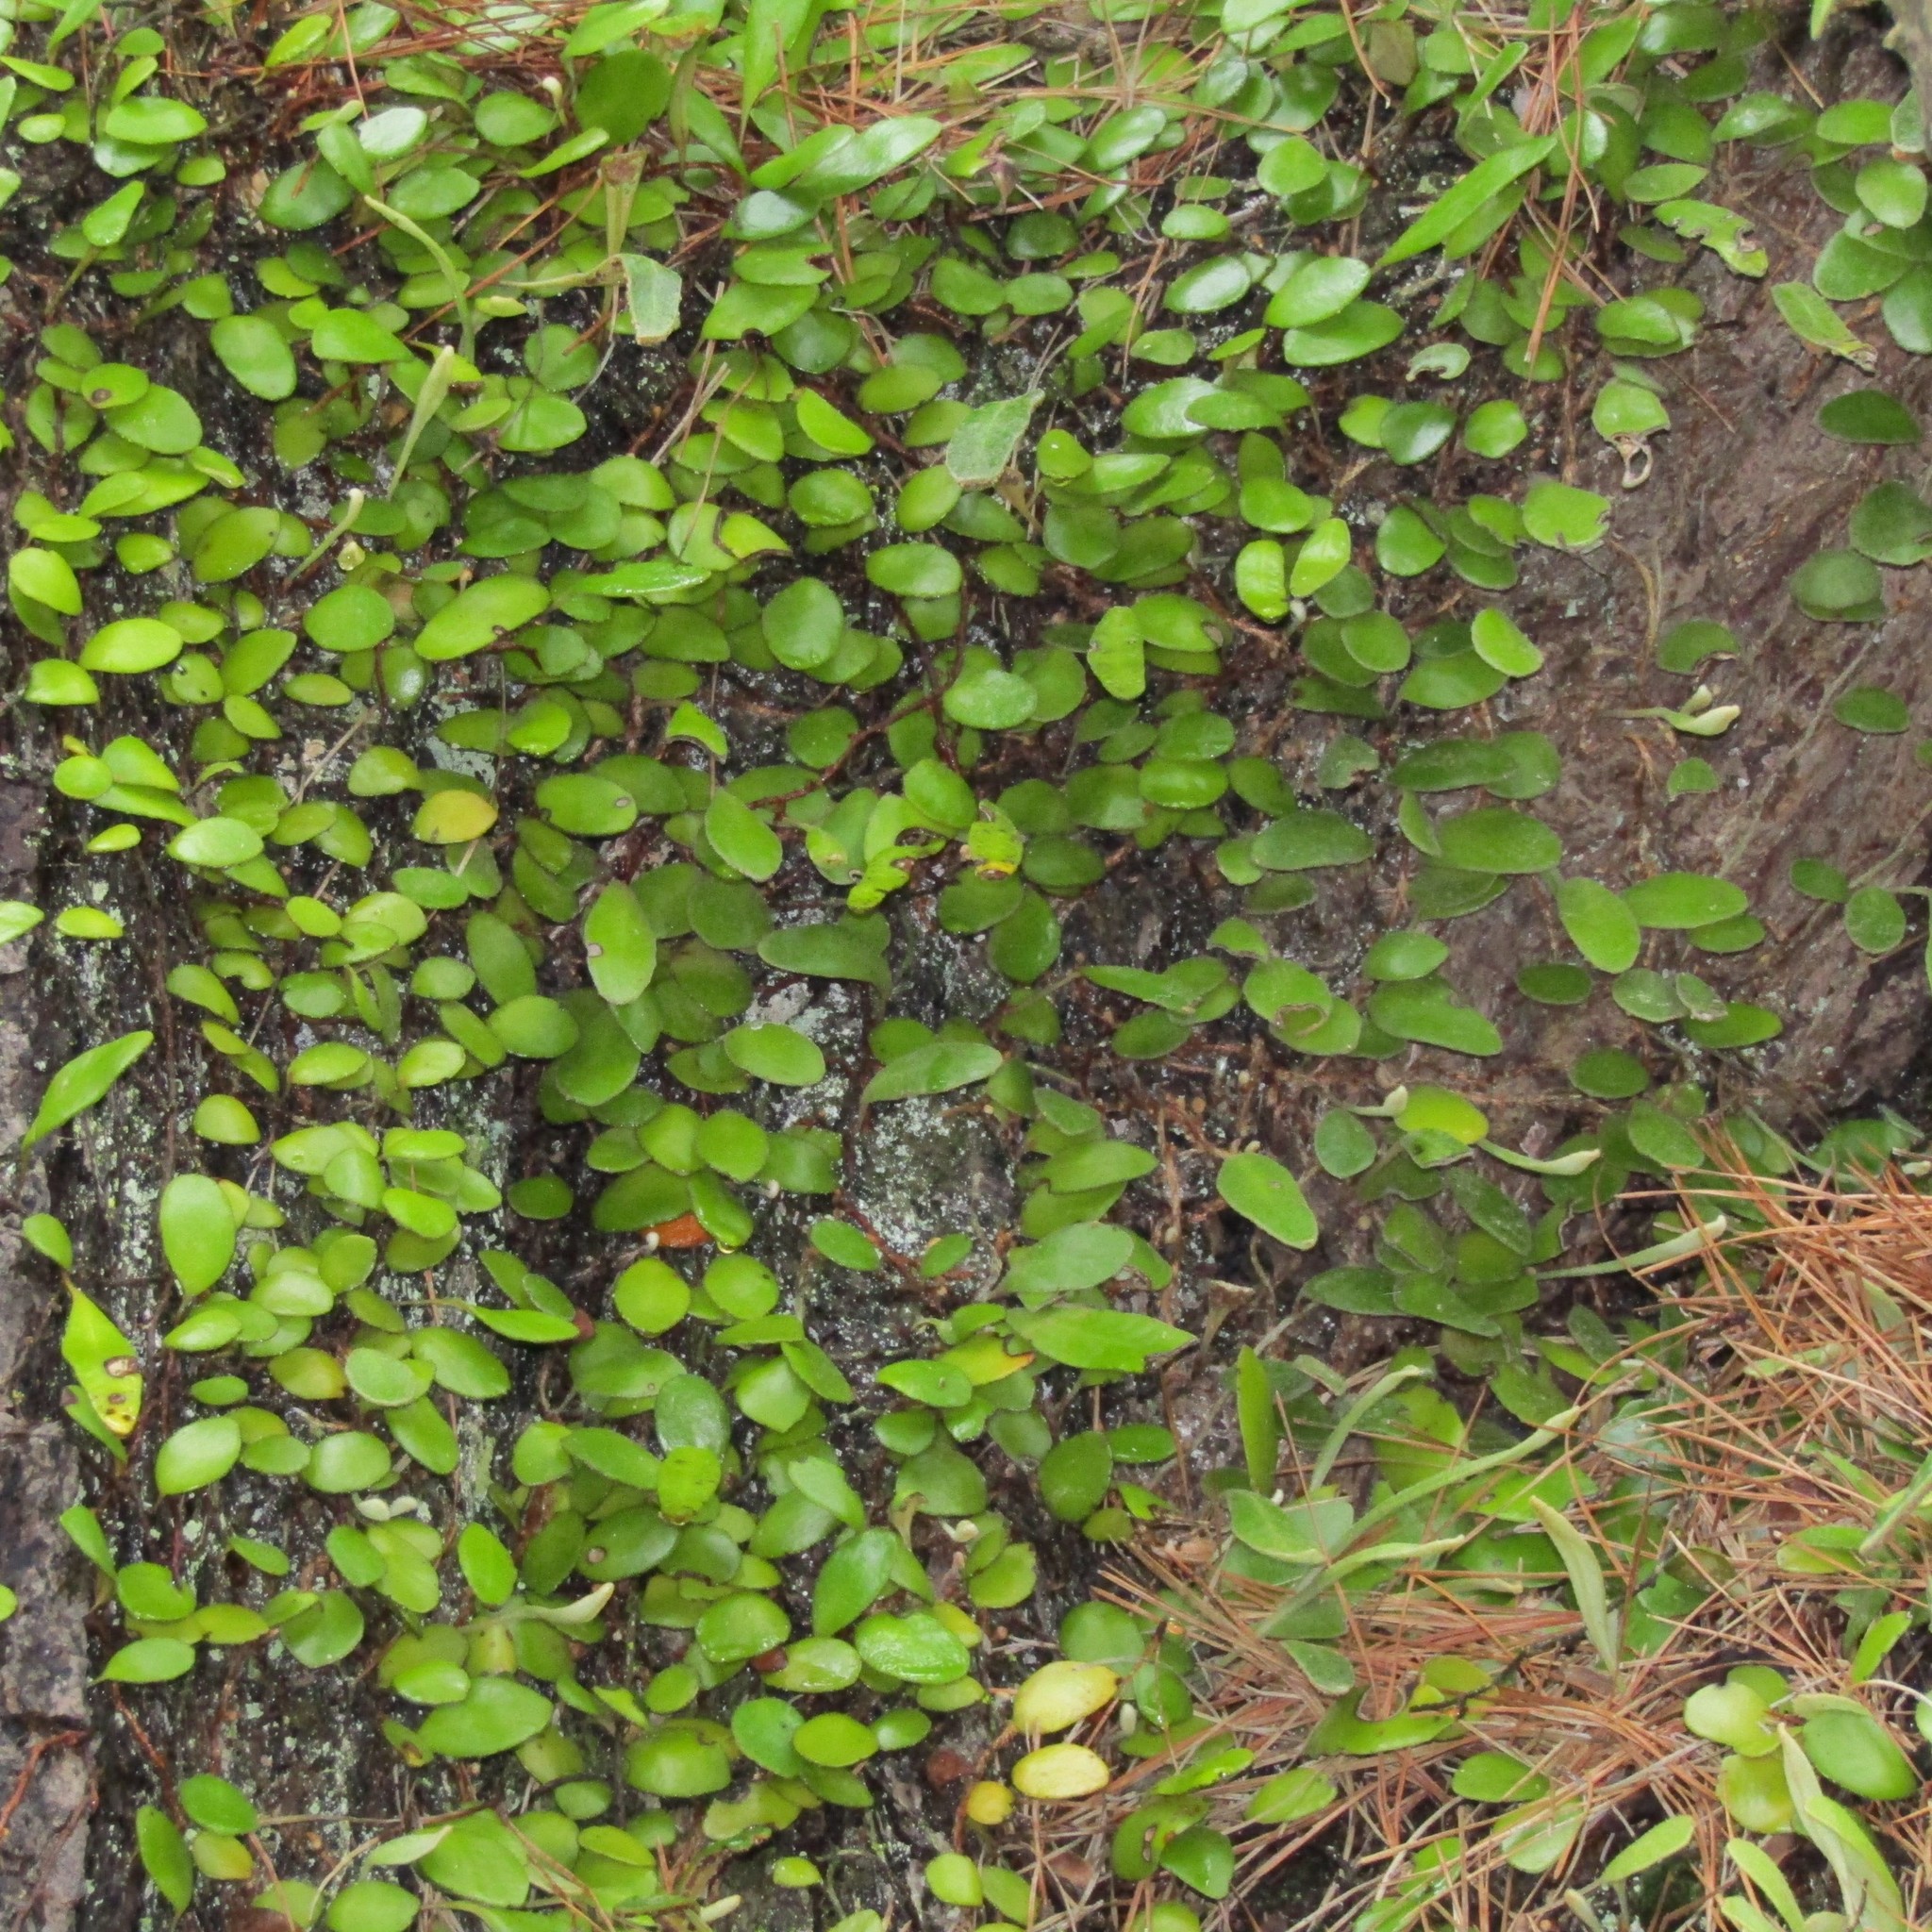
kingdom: Plantae
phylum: Tracheophyta
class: Polypodiopsida
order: Polypodiales
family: Polypodiaceae
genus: Pyrrosia
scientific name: Pyrrosia eleagnifolia
